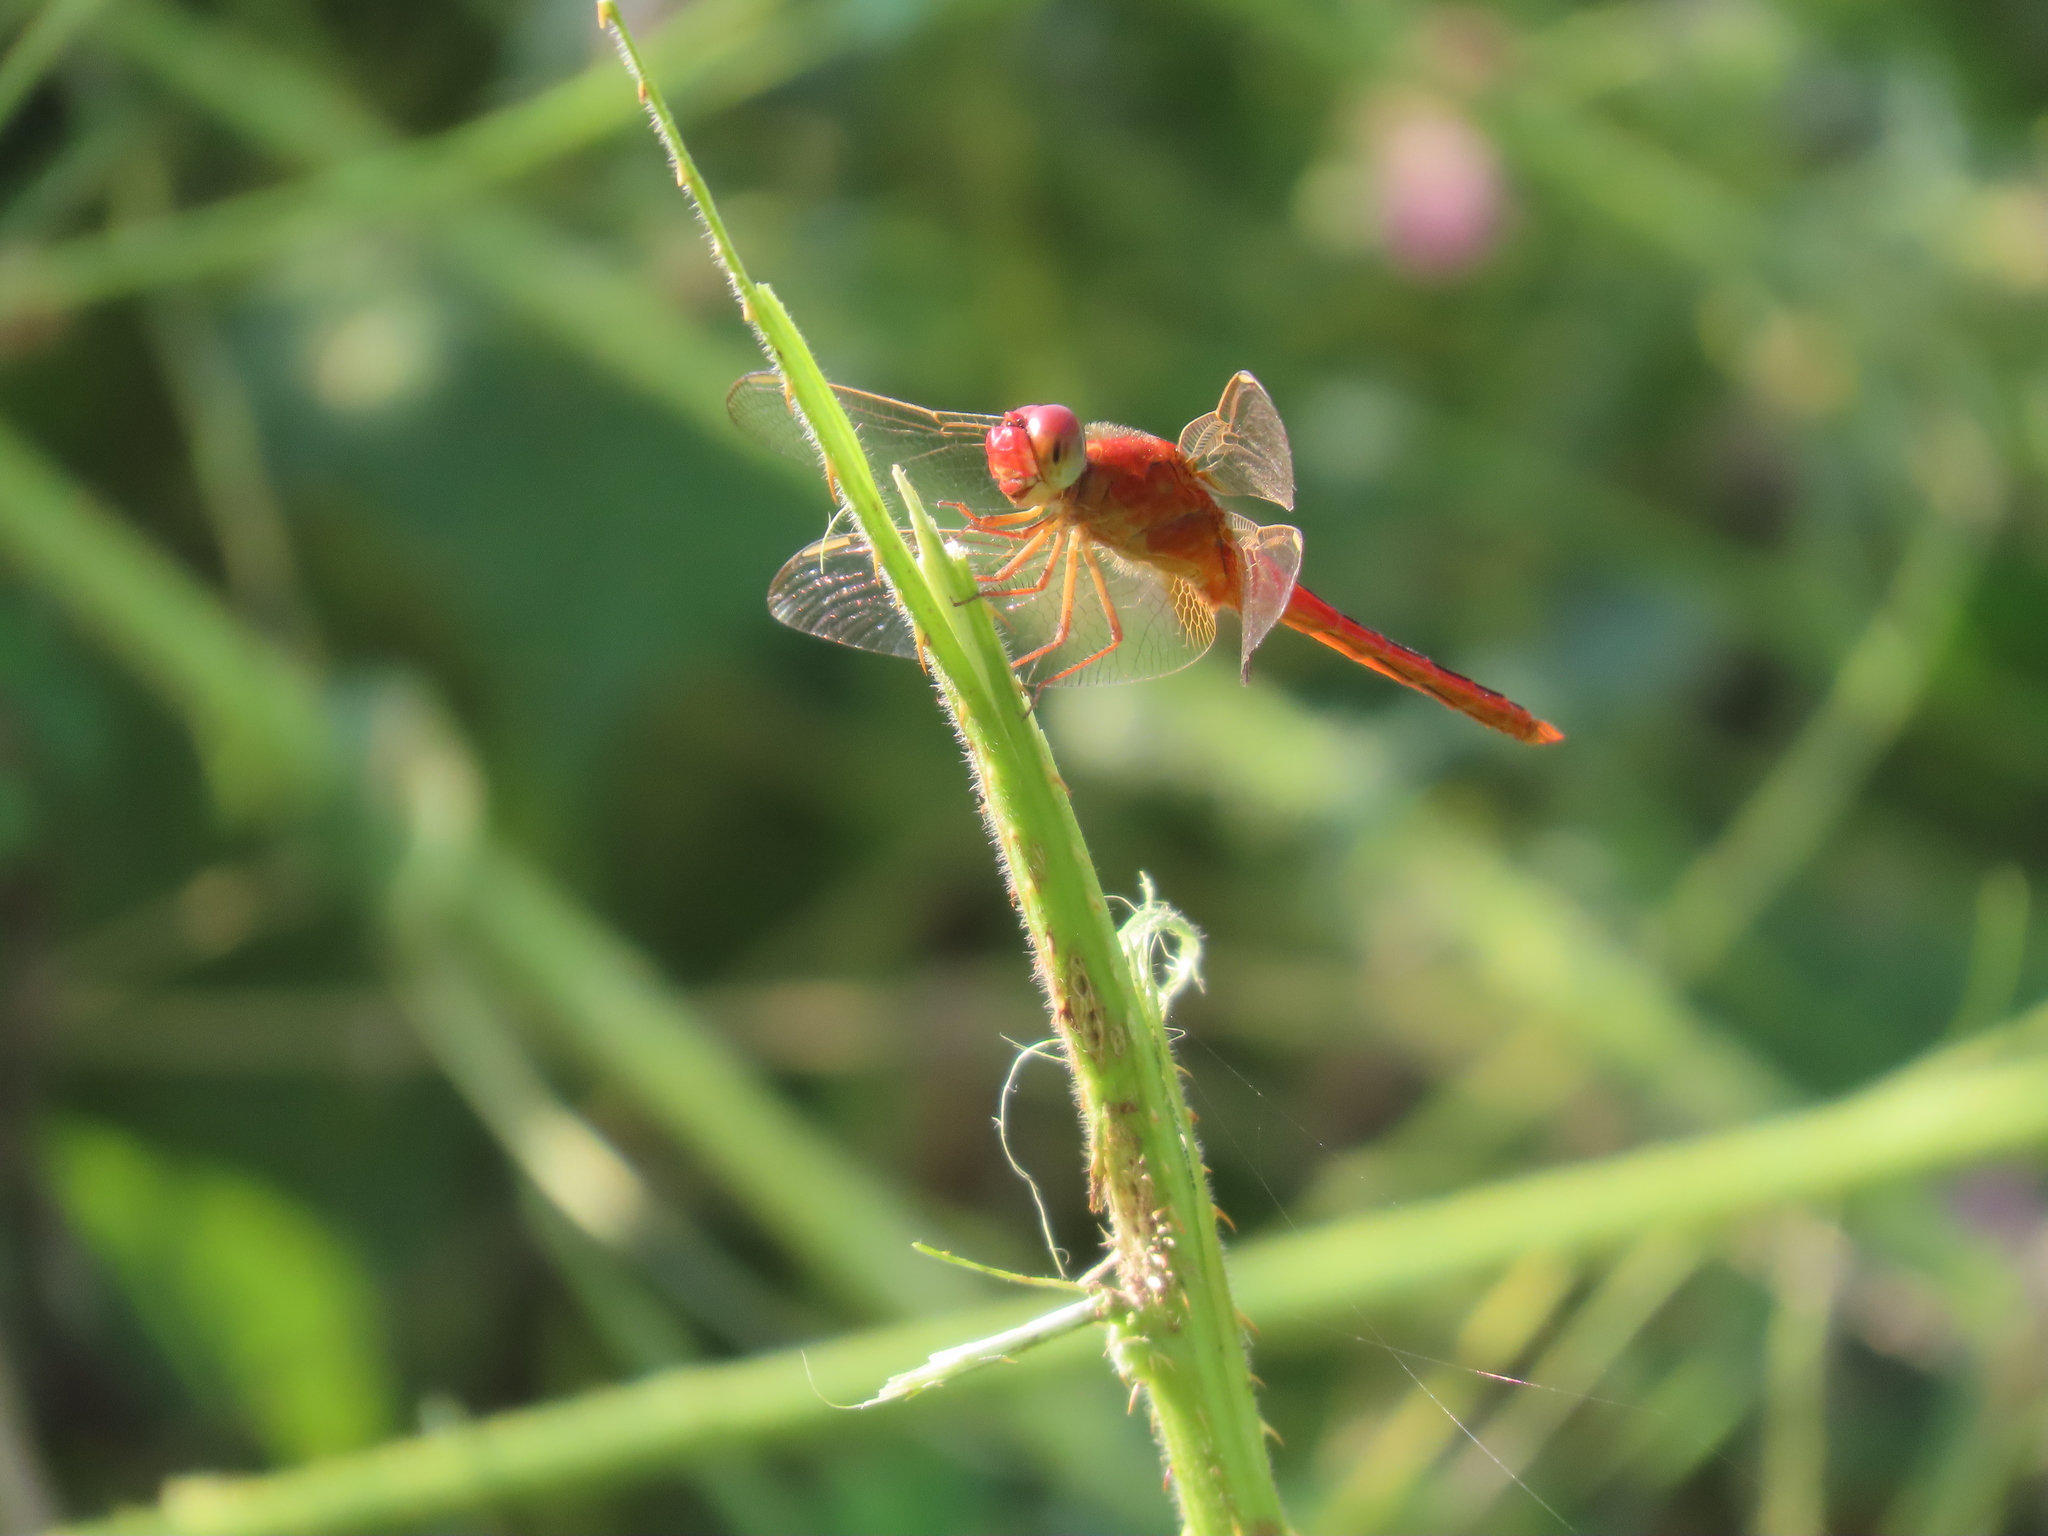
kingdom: Animalia
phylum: Arthropoda
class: Insecta
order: Odonata
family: Libellulidae
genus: Crocothemis
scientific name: Crocothemis servilia
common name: Scarlet skimmer
